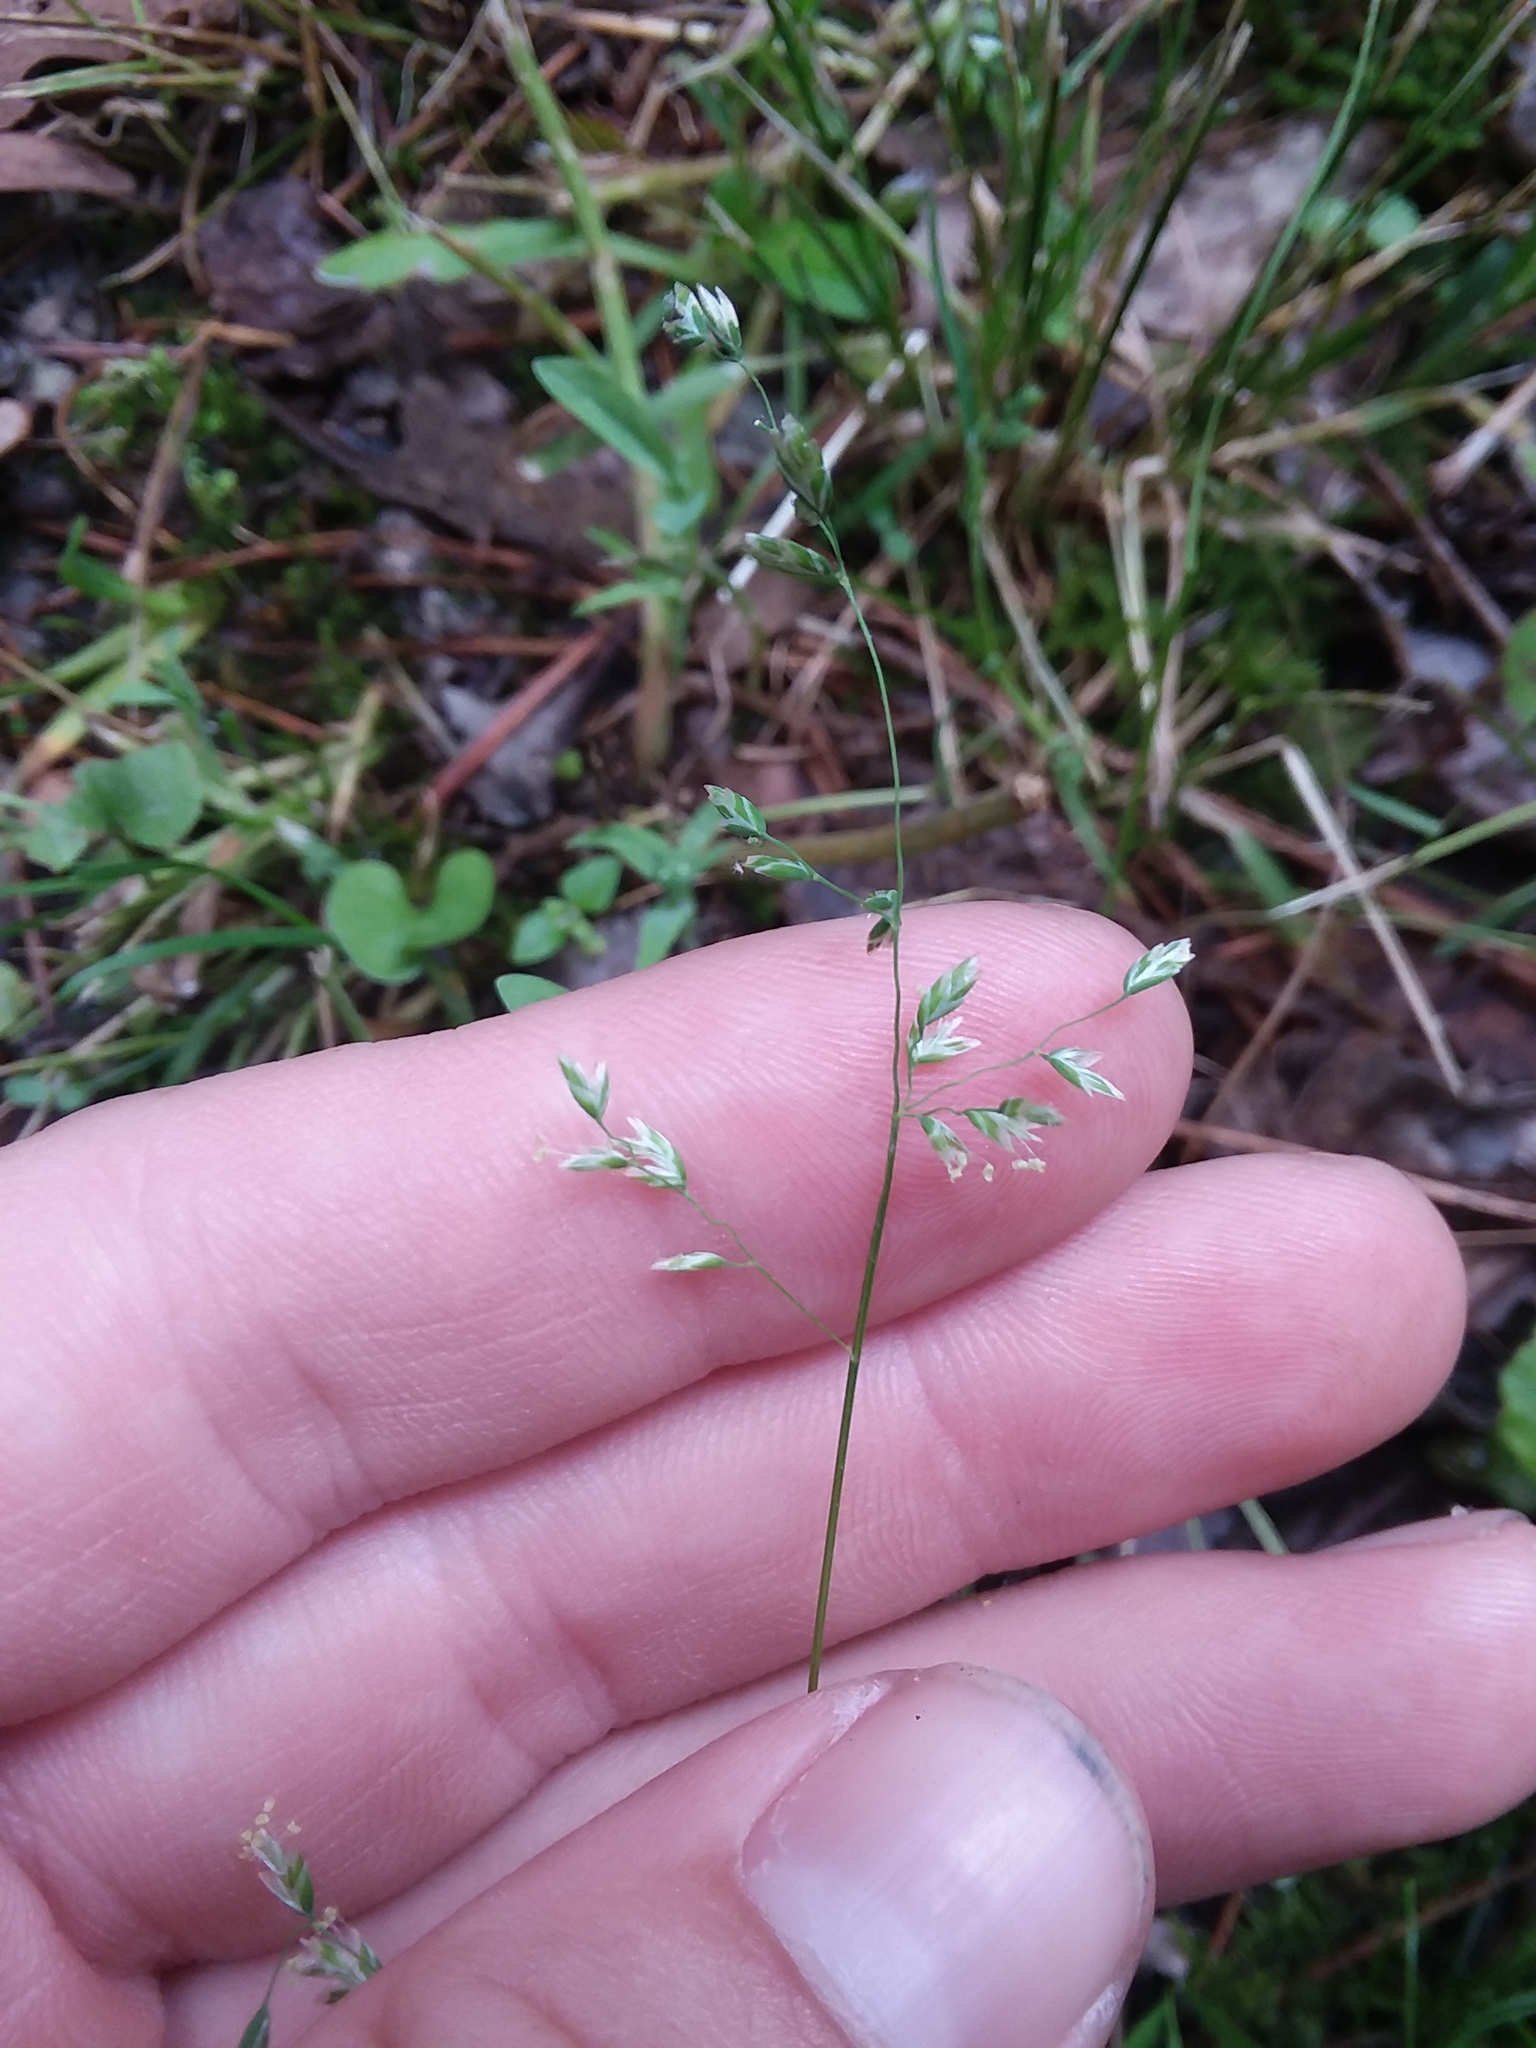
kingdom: Plantae
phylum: Tracheophyta
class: Liliopsida
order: Poales
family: Poaceae
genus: Poa
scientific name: Poa annua
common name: Annual bluegrass
